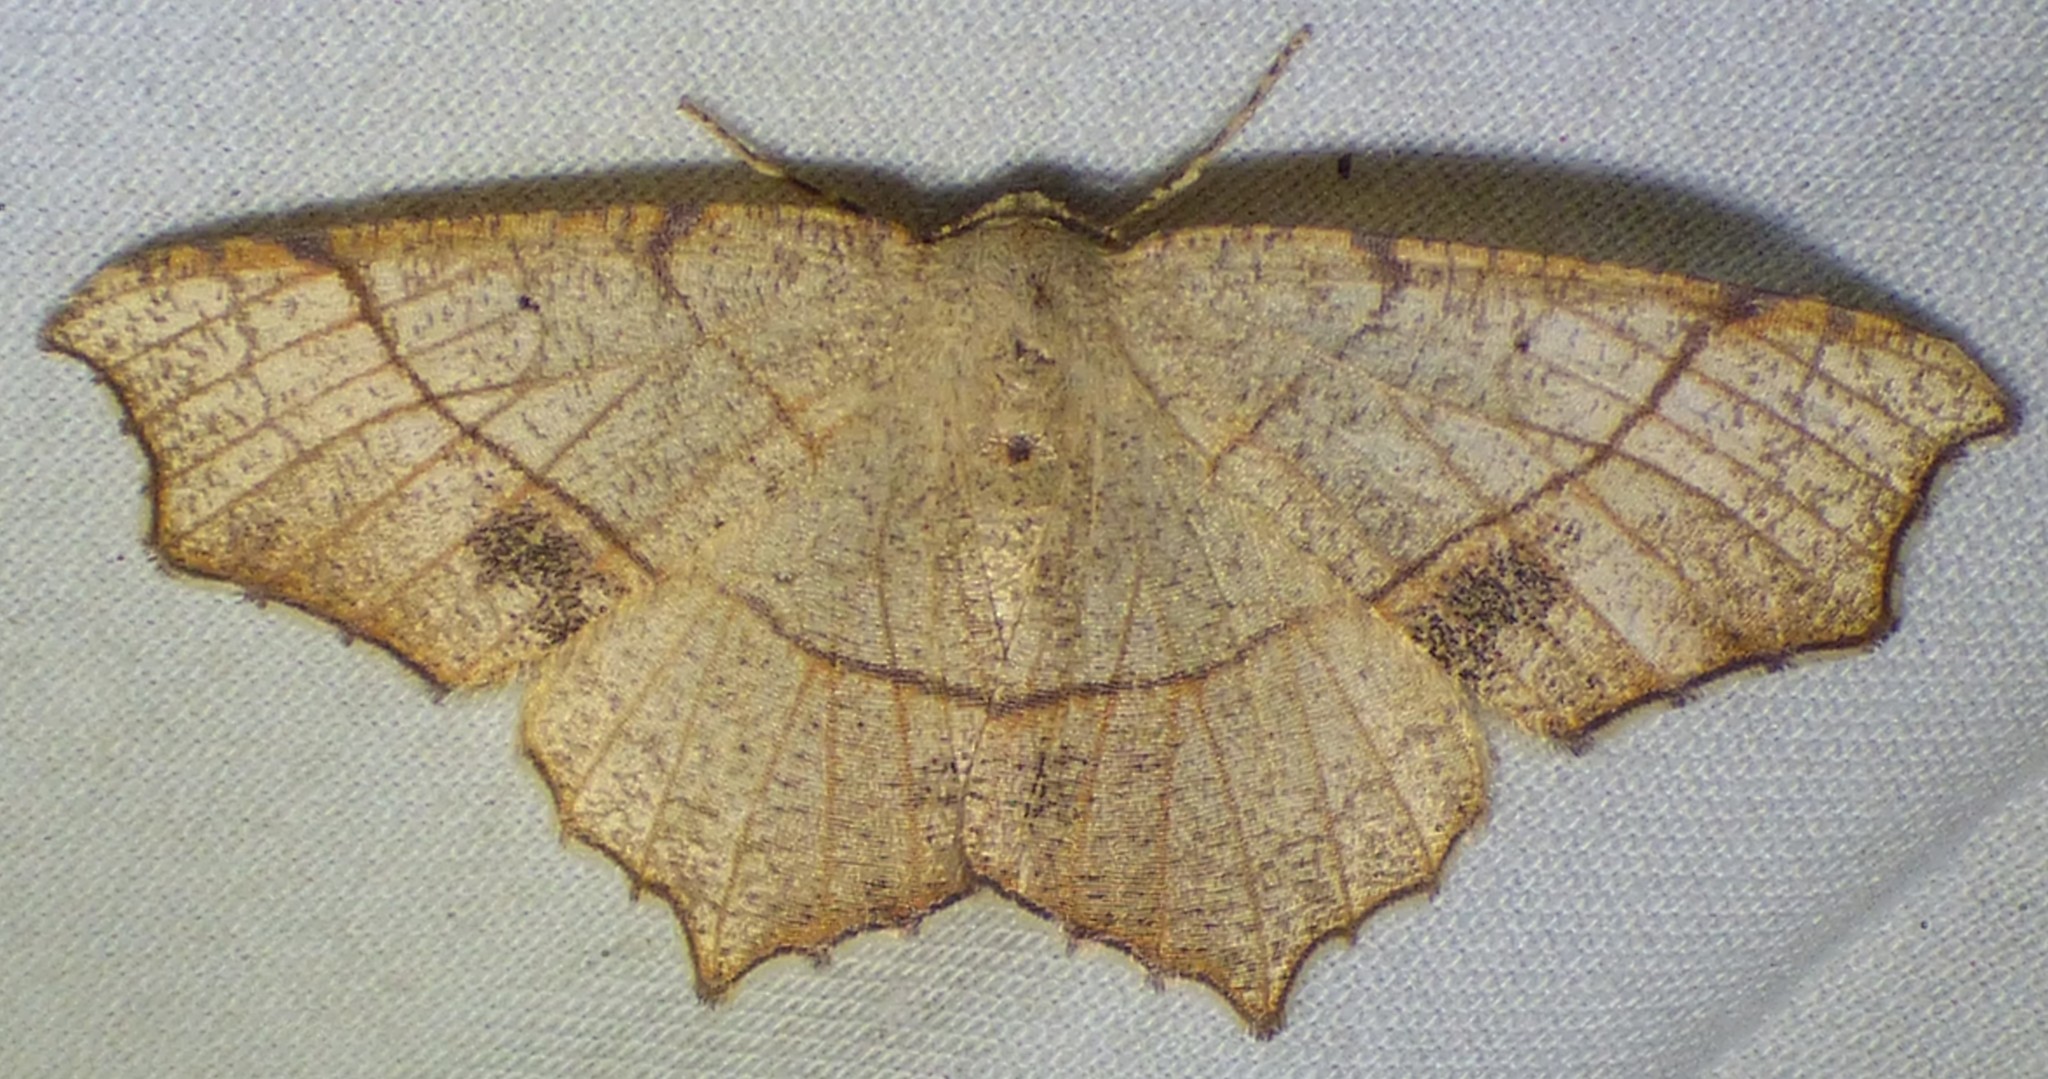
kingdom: Animalia
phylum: Arthropoda
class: Insecta
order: Lepidoptera
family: Geometridae
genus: Besma
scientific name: Besma quercivoraria
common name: Oak besma
